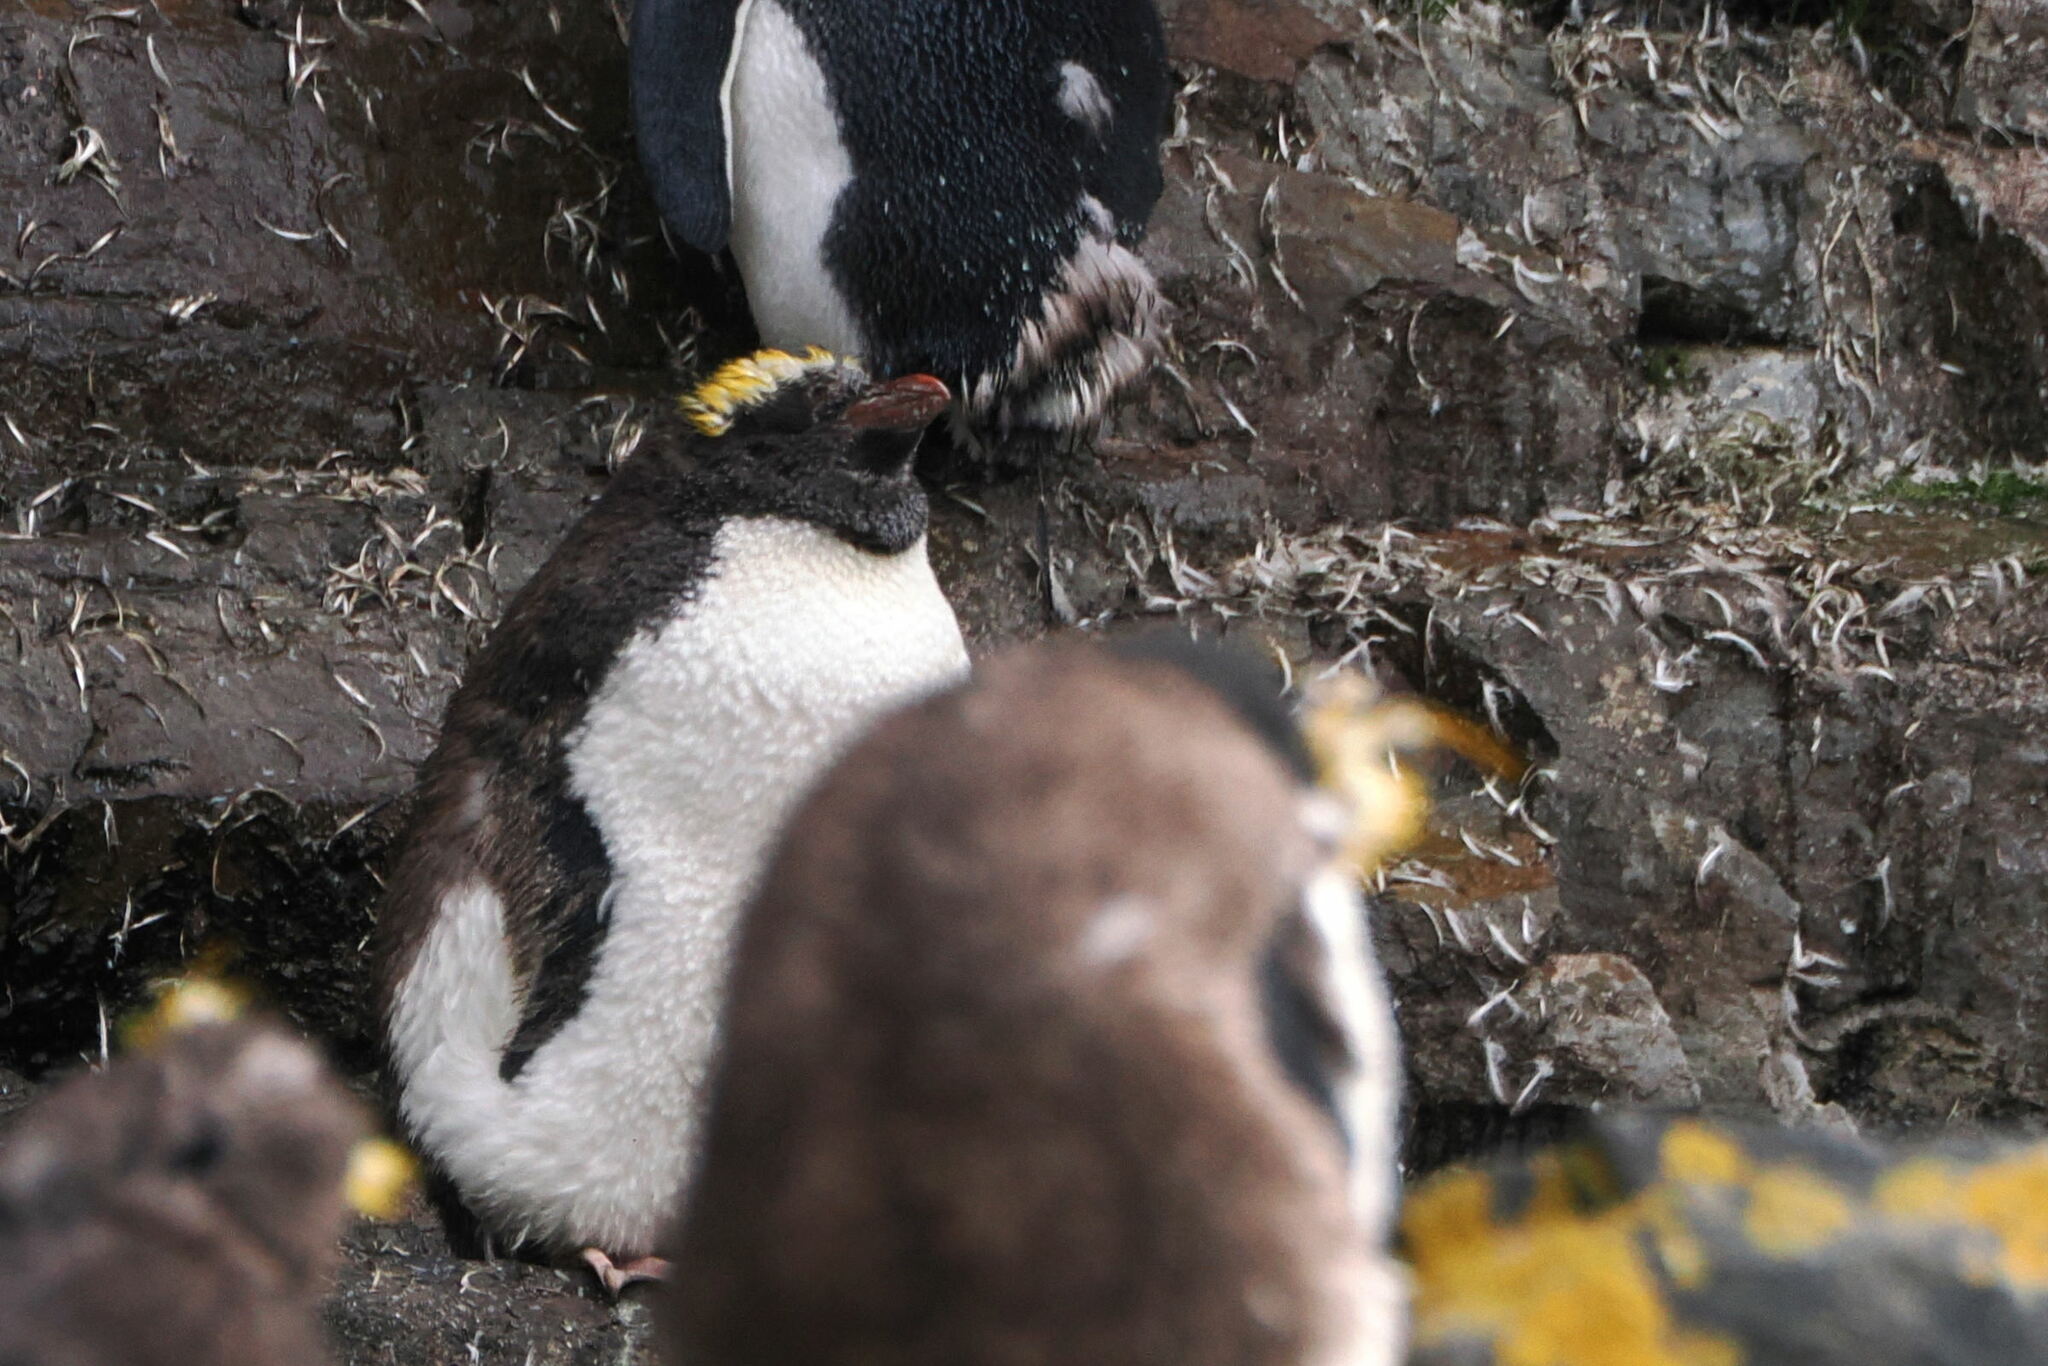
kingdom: Animalia
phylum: Chordata
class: Aves
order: Sphenisciformes
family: Spheniscidae
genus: Eudyptes
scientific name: Eudyptes chrysolophus
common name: Macaroni penguin
